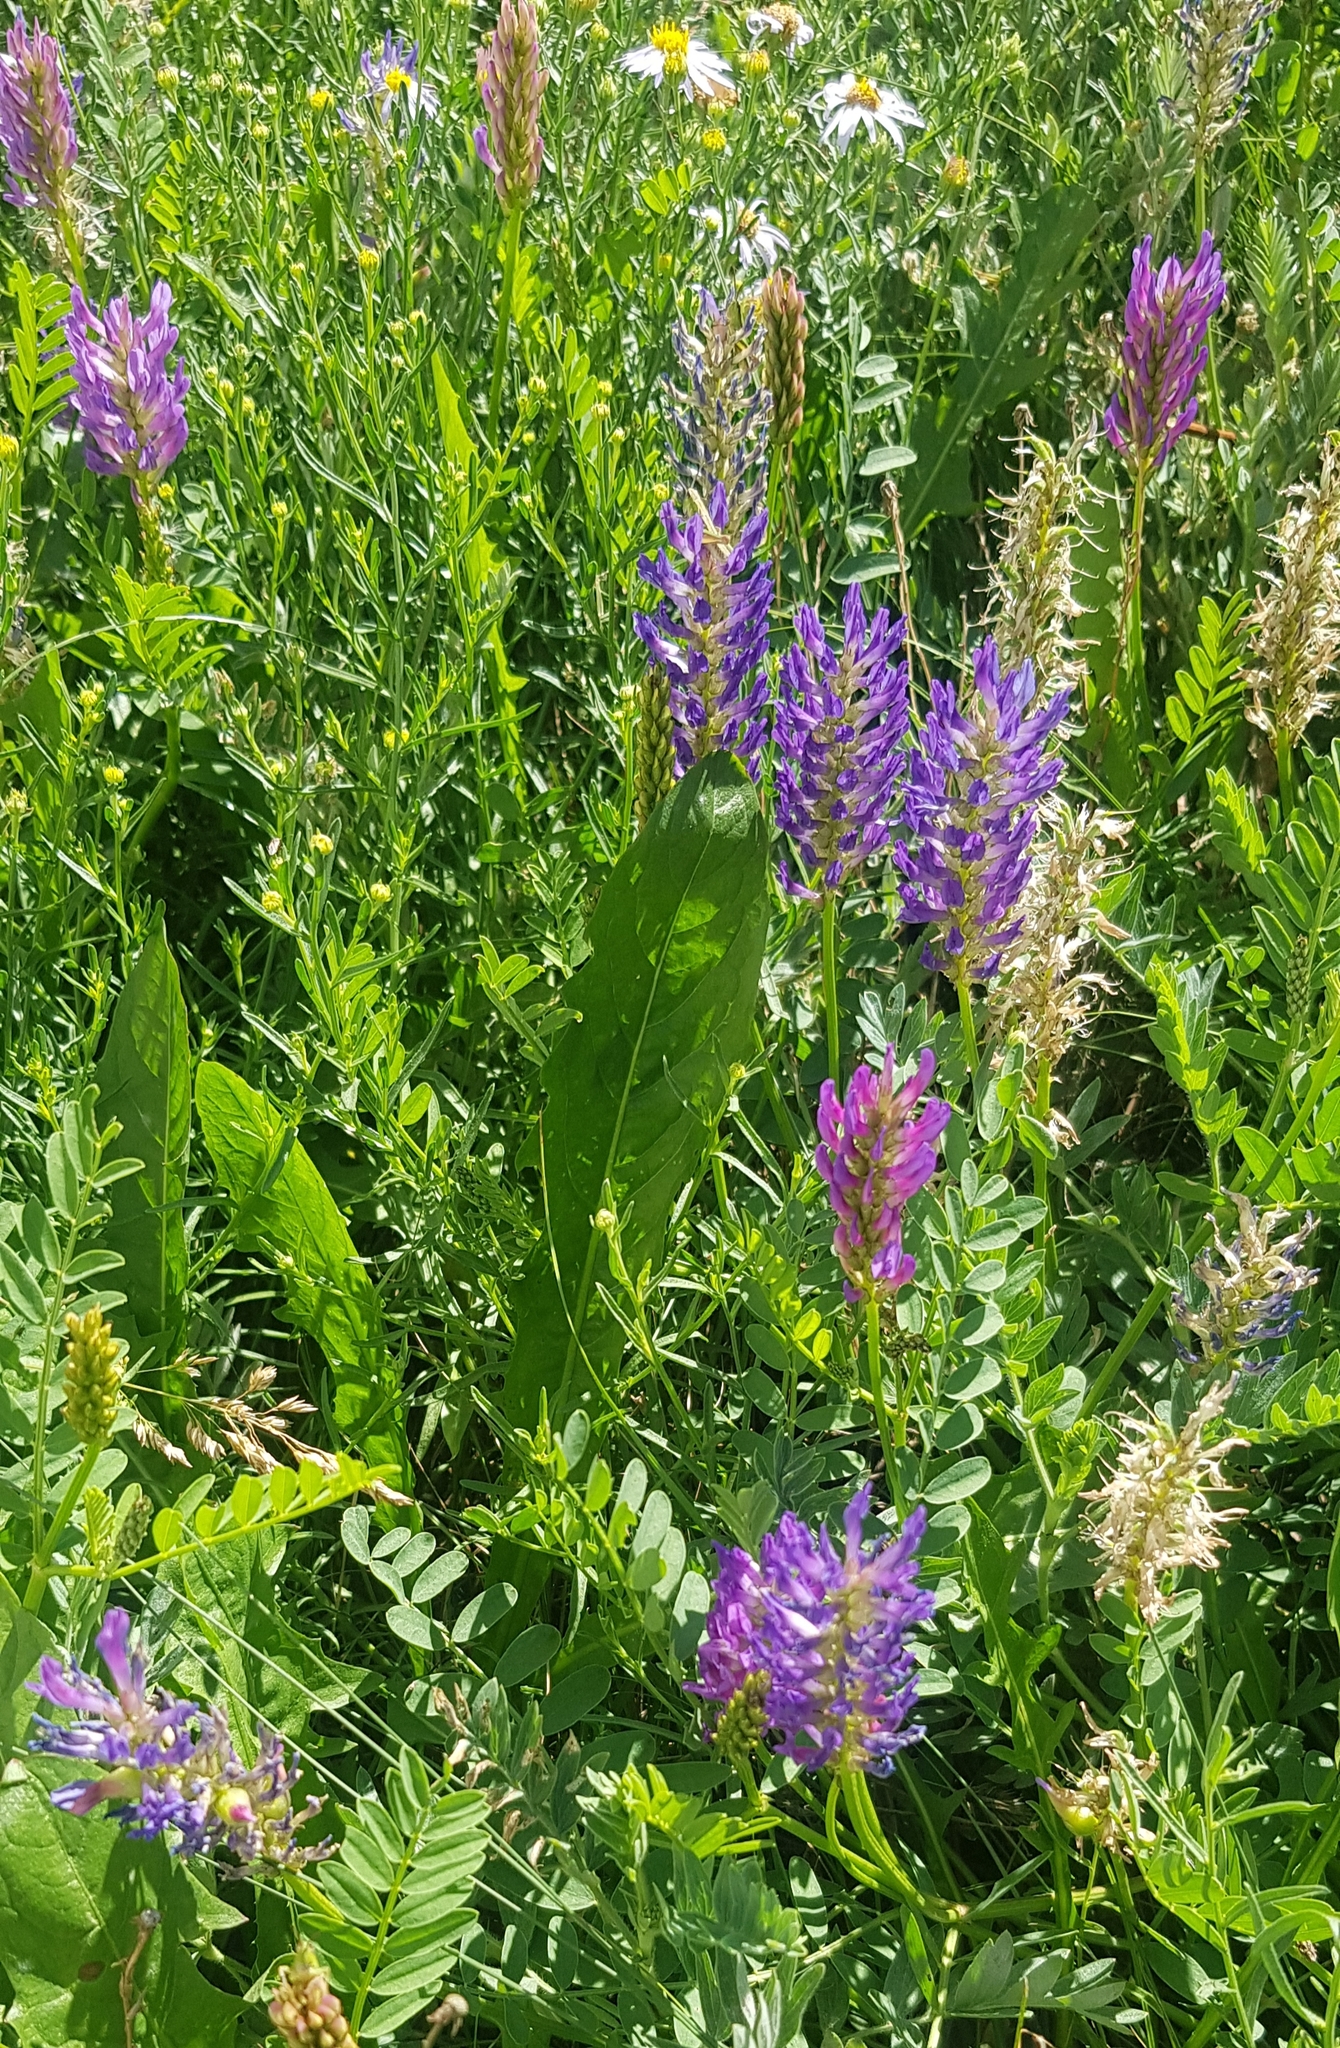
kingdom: Plantae
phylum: Tracheophyta
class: Magnoliopsida
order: Fabales
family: Fabaceae
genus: Astragalus
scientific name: Astragalus laxmannii
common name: Laxmann's milk-vetch
